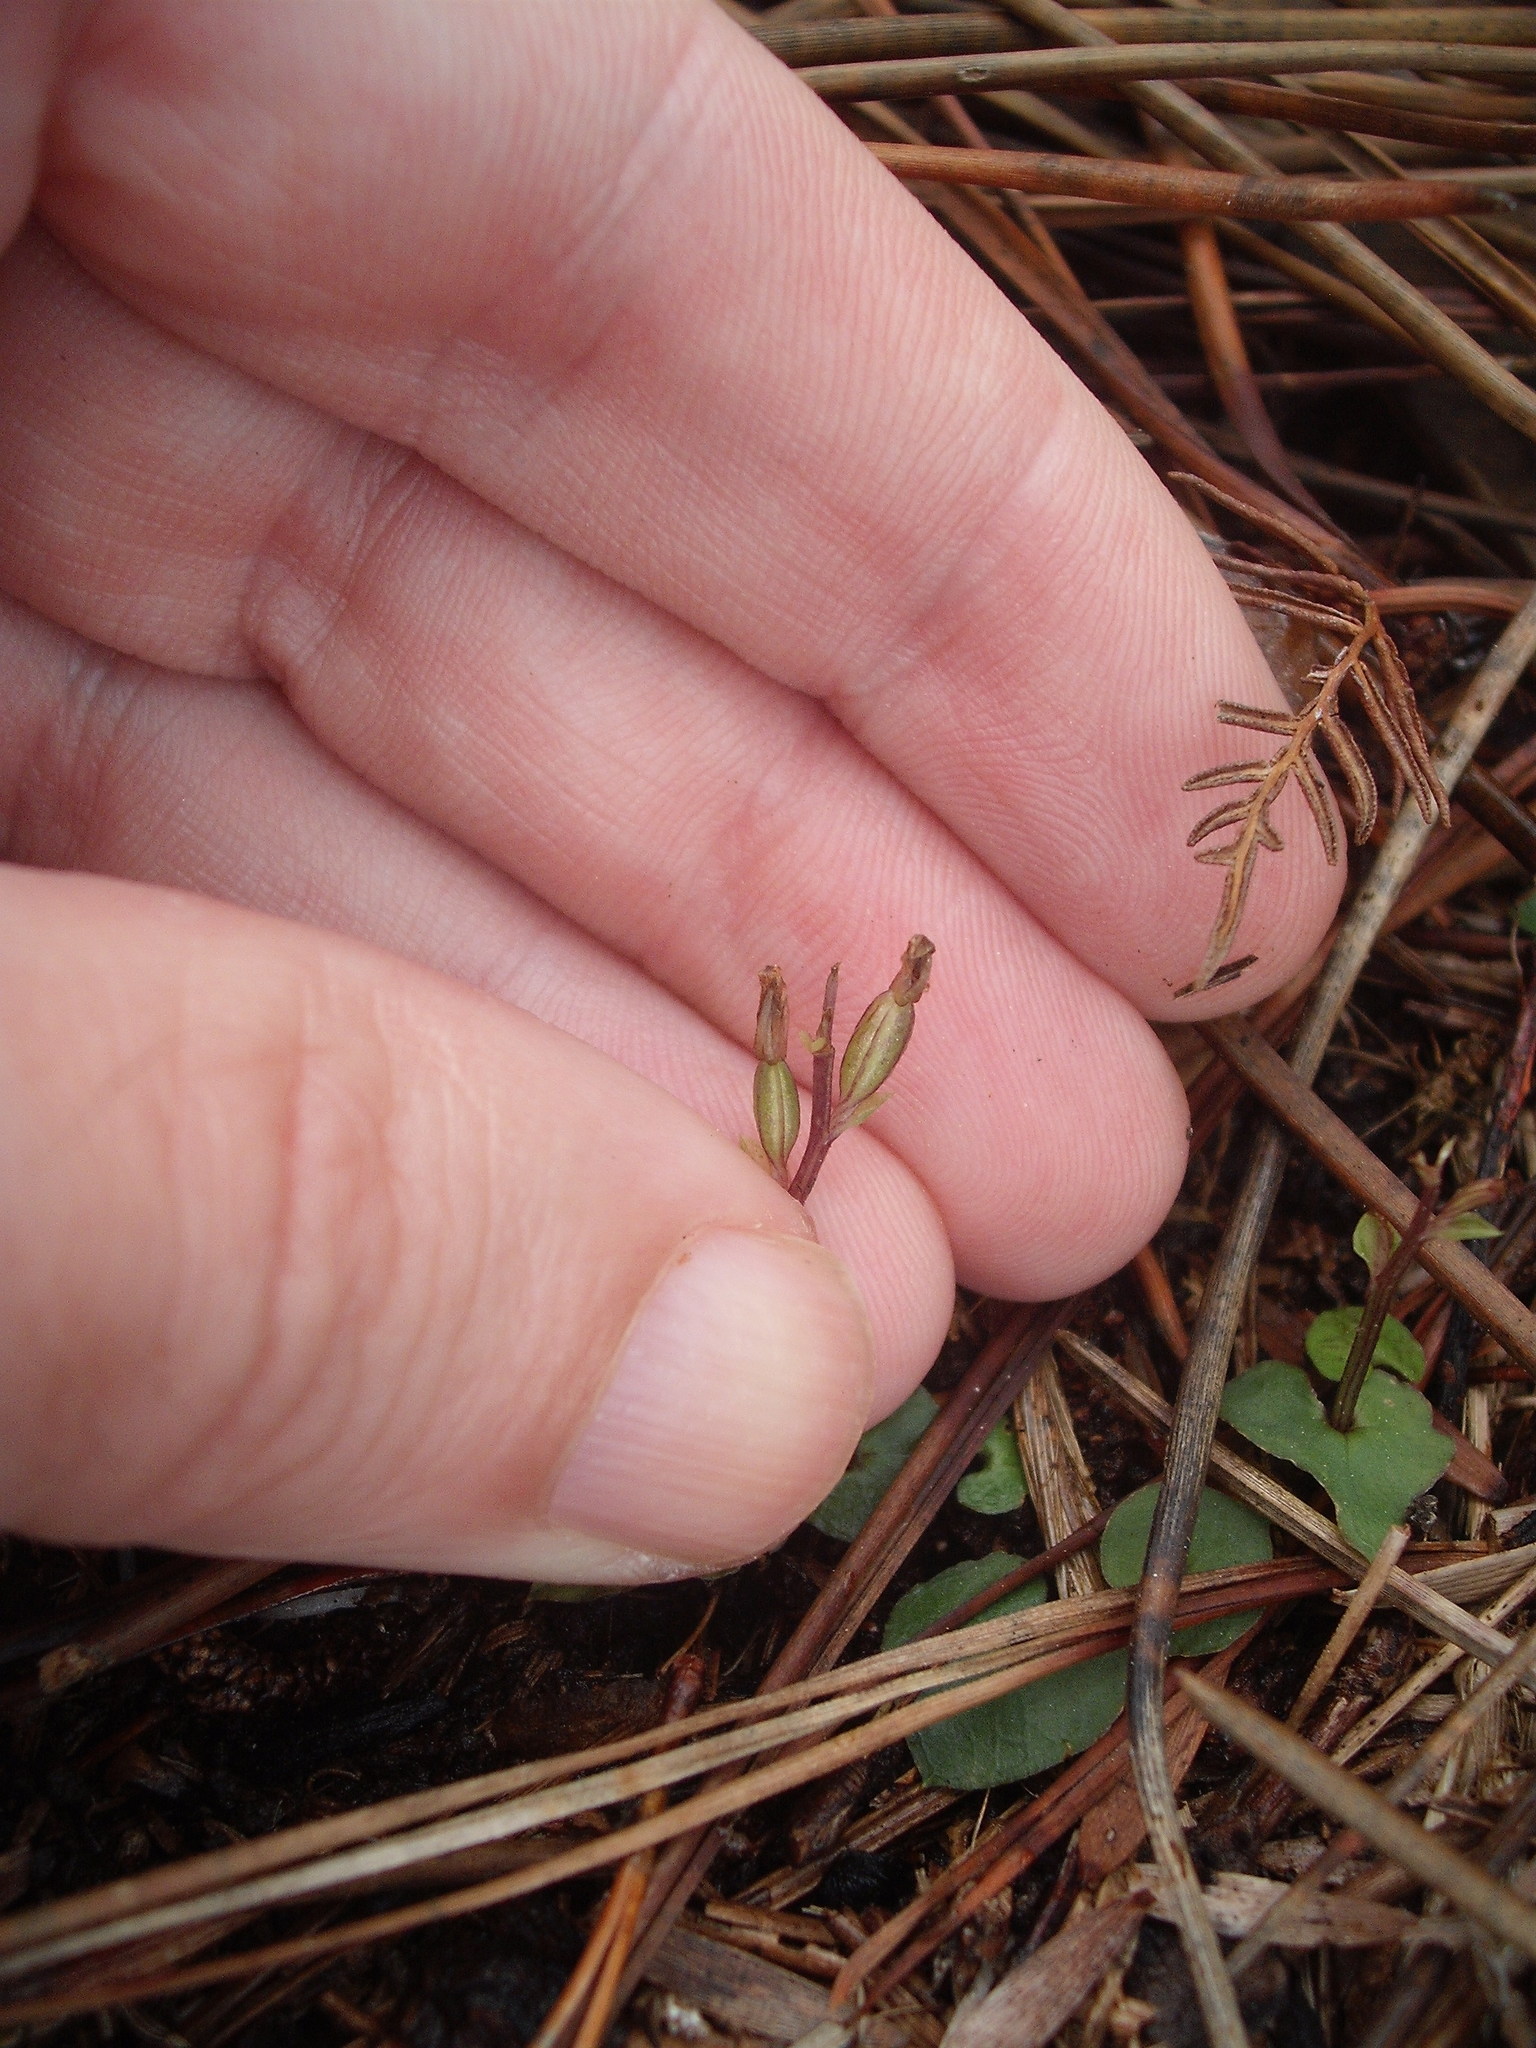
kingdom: Plantae
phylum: Tracheophyta
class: Liliopsida
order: Asparagales
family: Orchidaceae
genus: Acianthus
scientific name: Acianthus sinclairii
